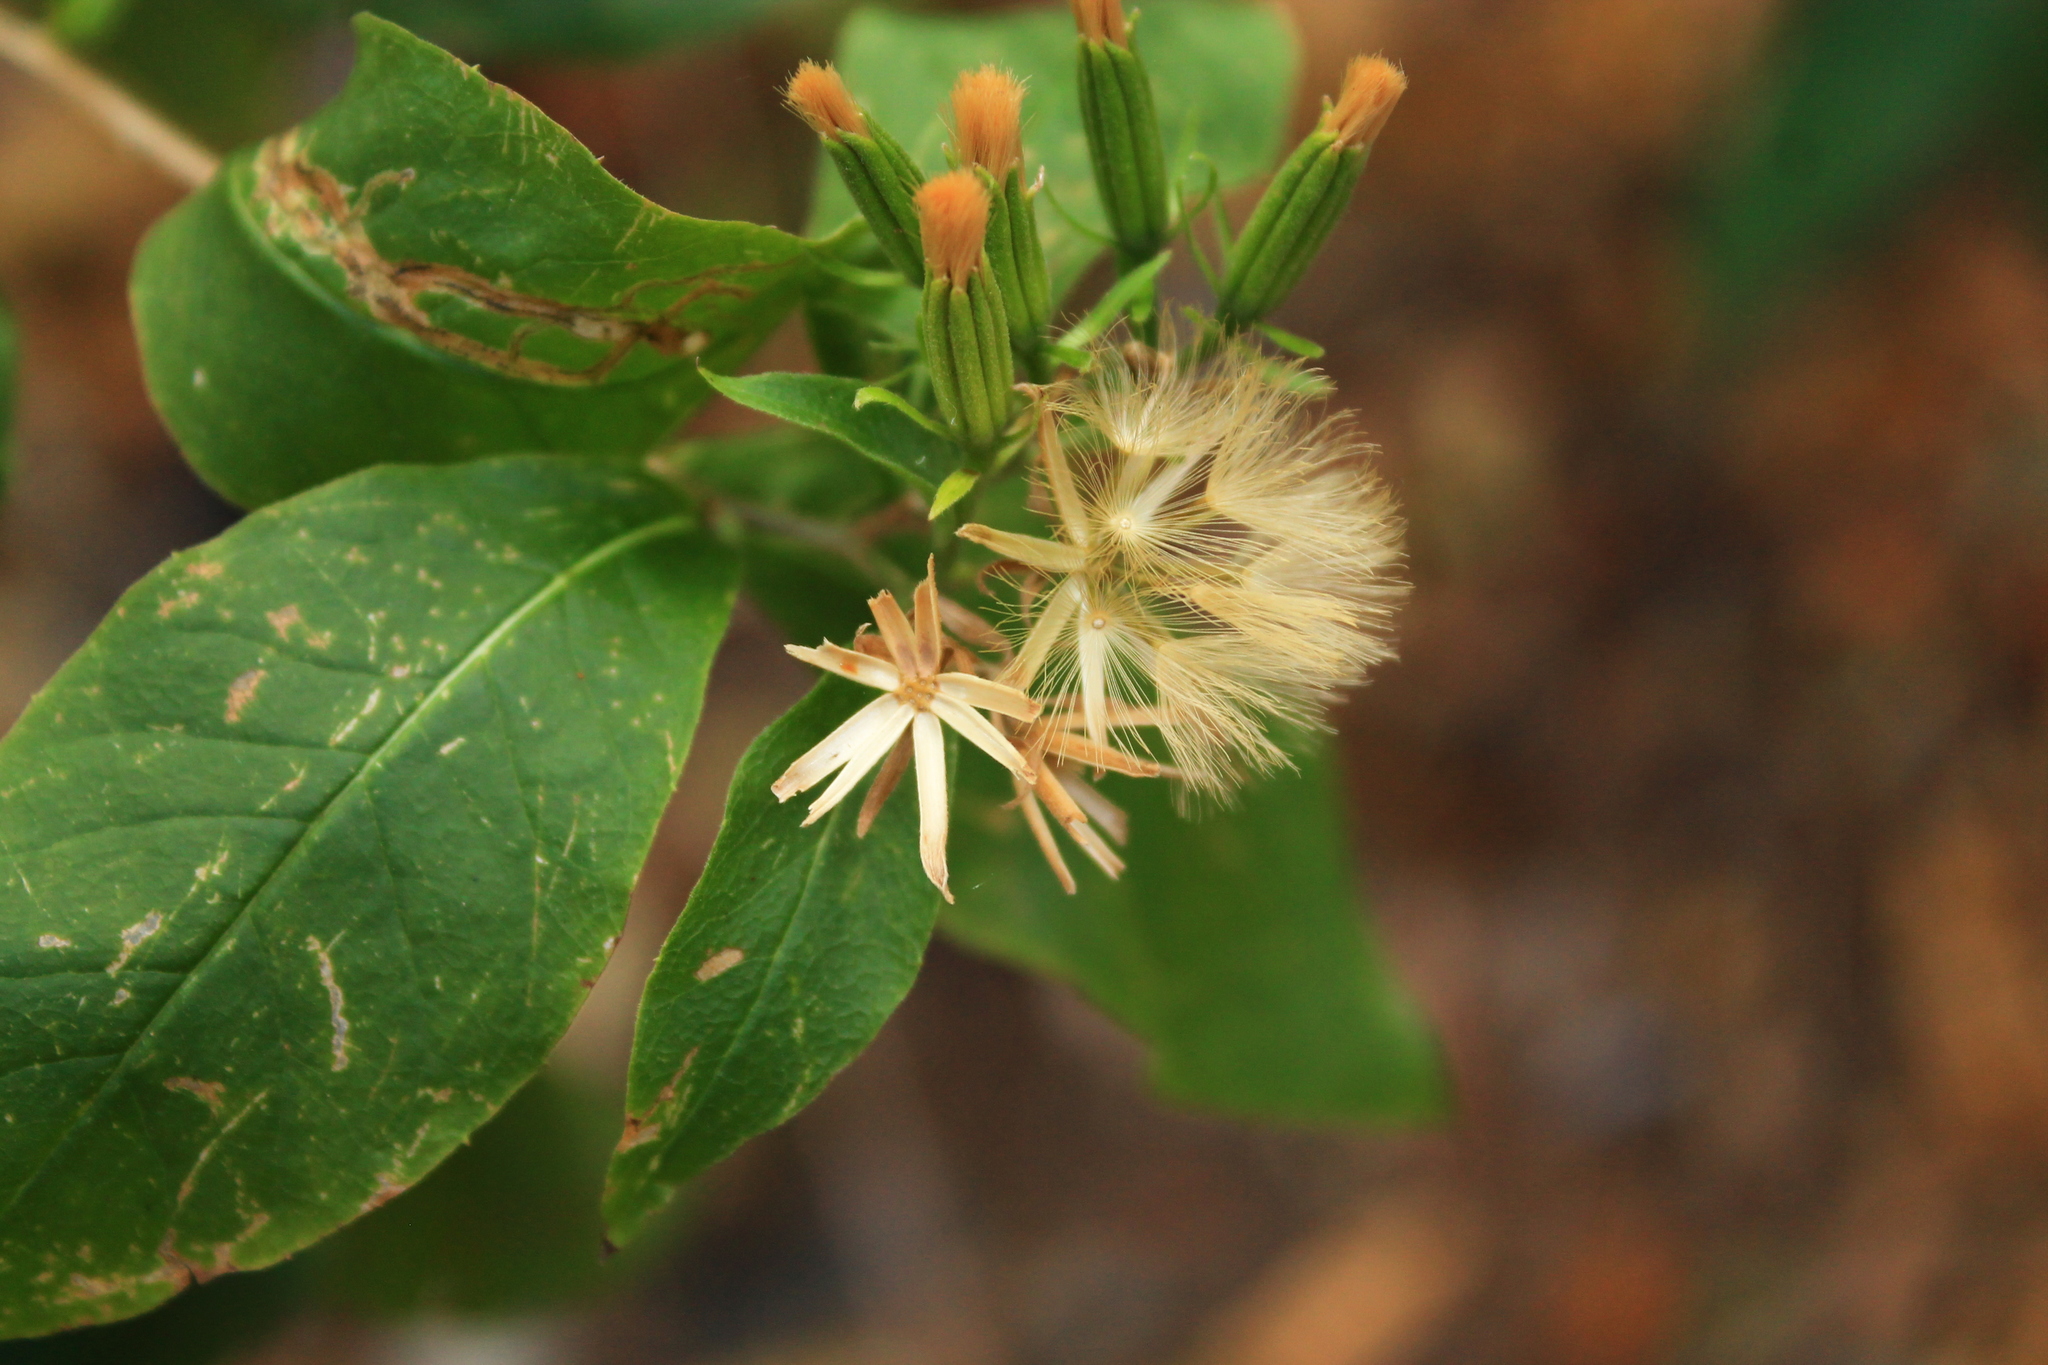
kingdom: Plantae
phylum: Tracheophyta
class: Magnoliopsida
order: Asterales
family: Asteraceae
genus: Trixis
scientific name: Trixis inula
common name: Tropical threefold
